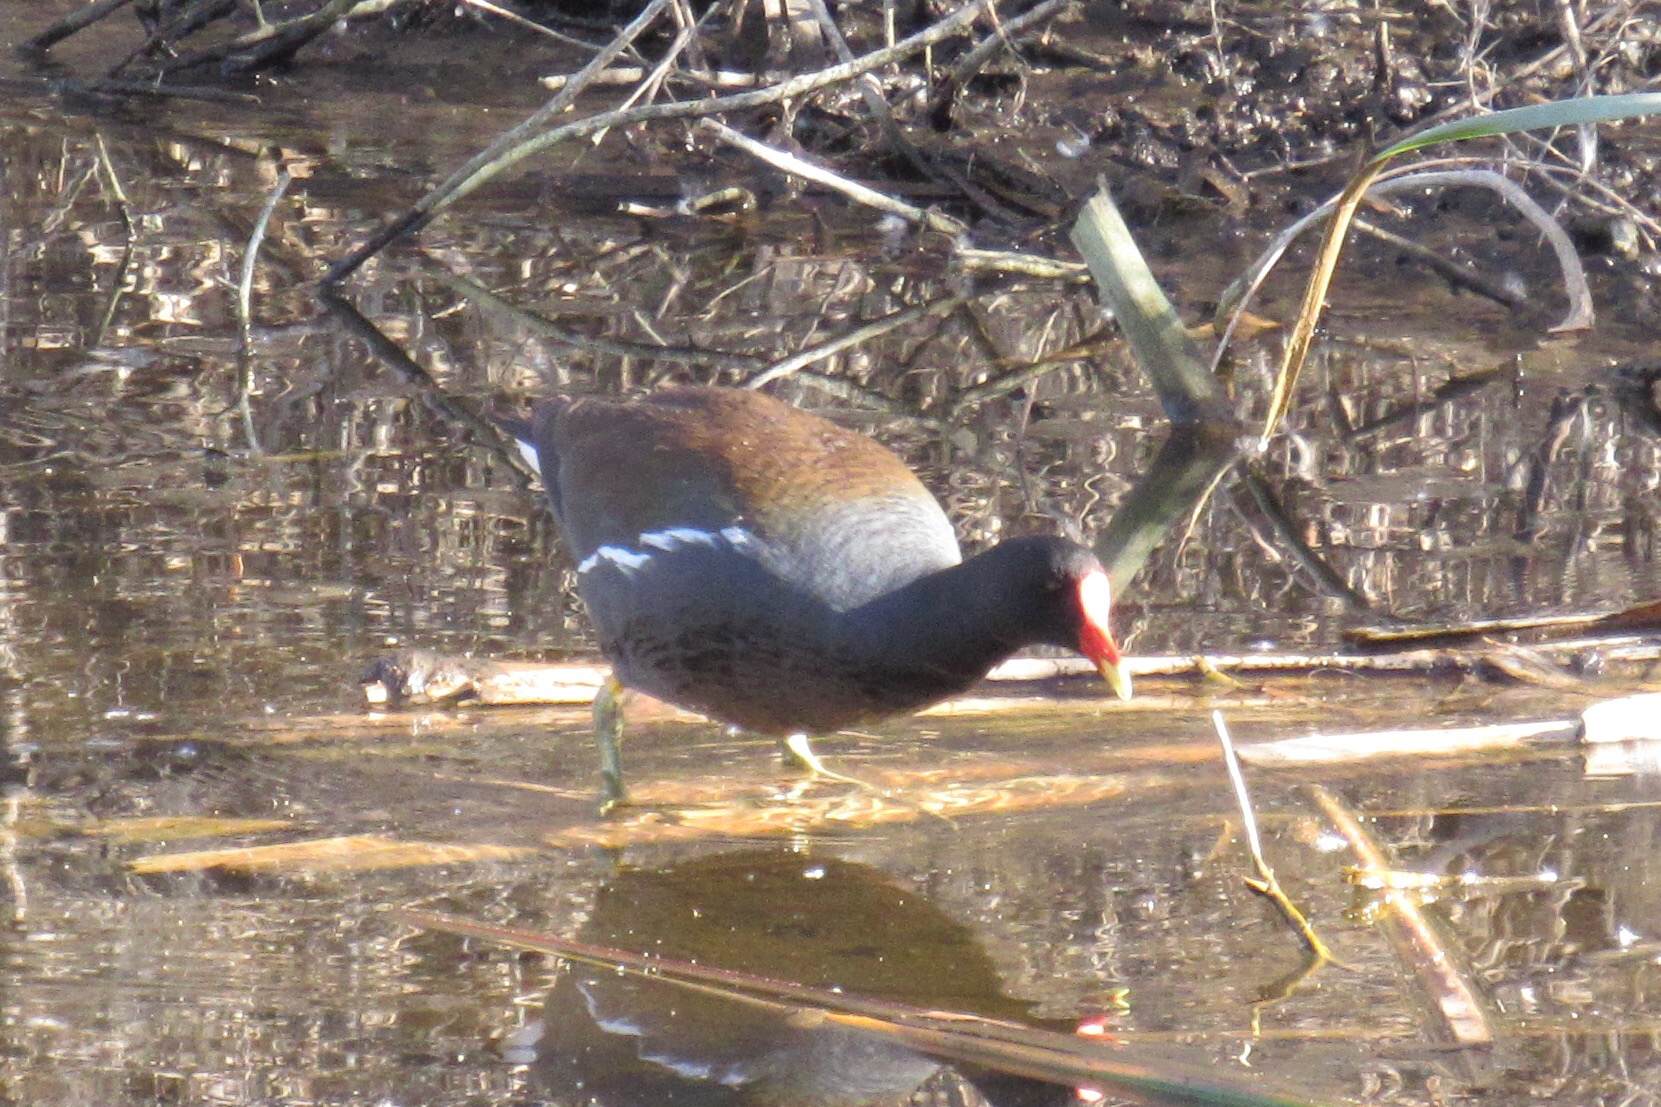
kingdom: Animalia
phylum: Chordata
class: Aves
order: Gruiformes
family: Rallidae
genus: Gallinula
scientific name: Gallinula chloropus
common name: Common moorhen
